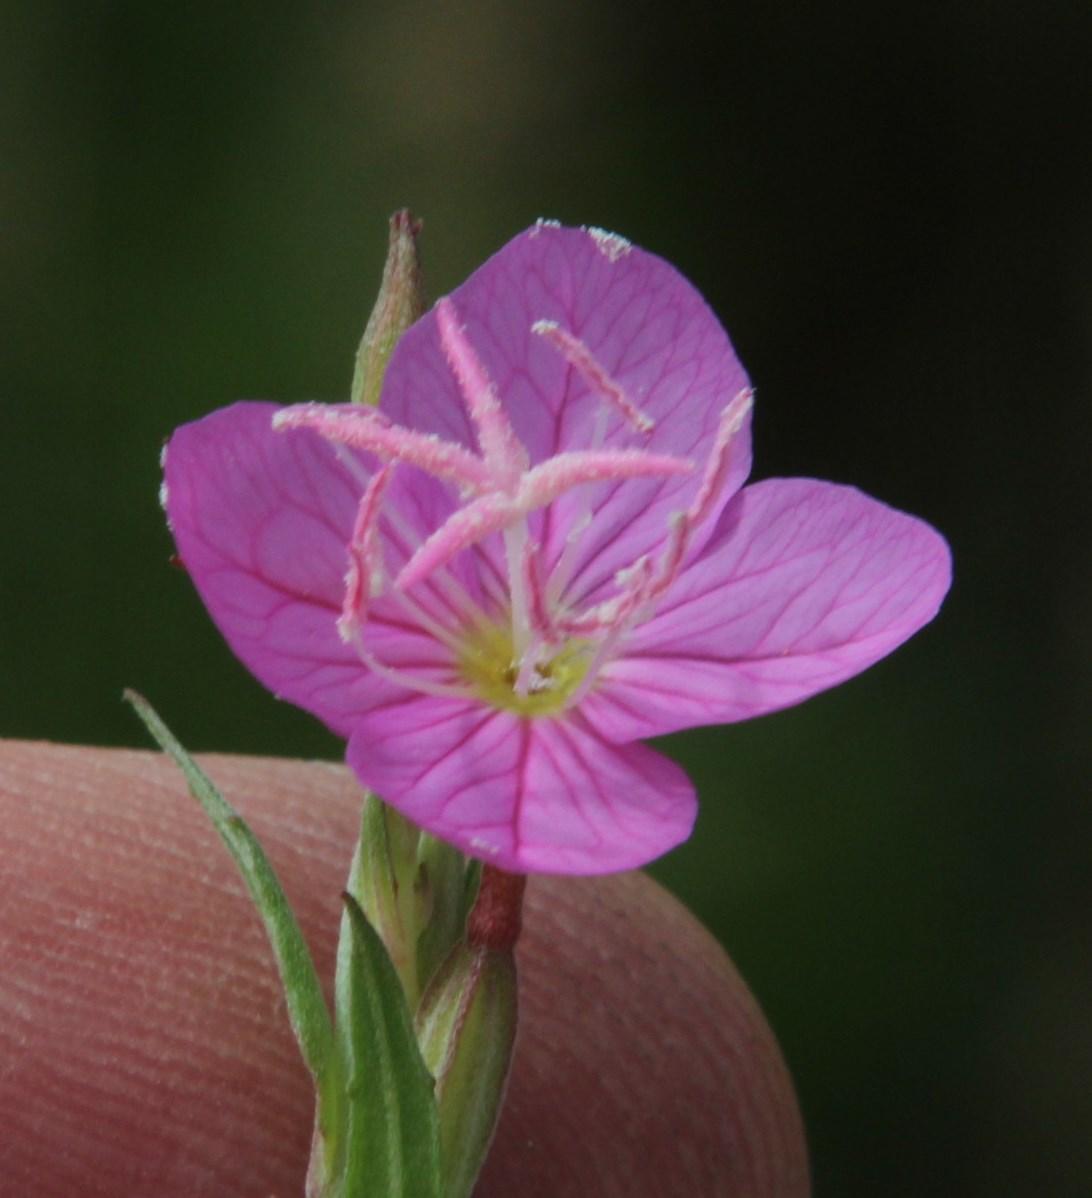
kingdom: Plantae
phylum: Tracheophyta
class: Magnoliopsida
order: Myrtales
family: Onagraceae
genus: Oenothera
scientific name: Oenothera rosea
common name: Rosy evening-primrose
